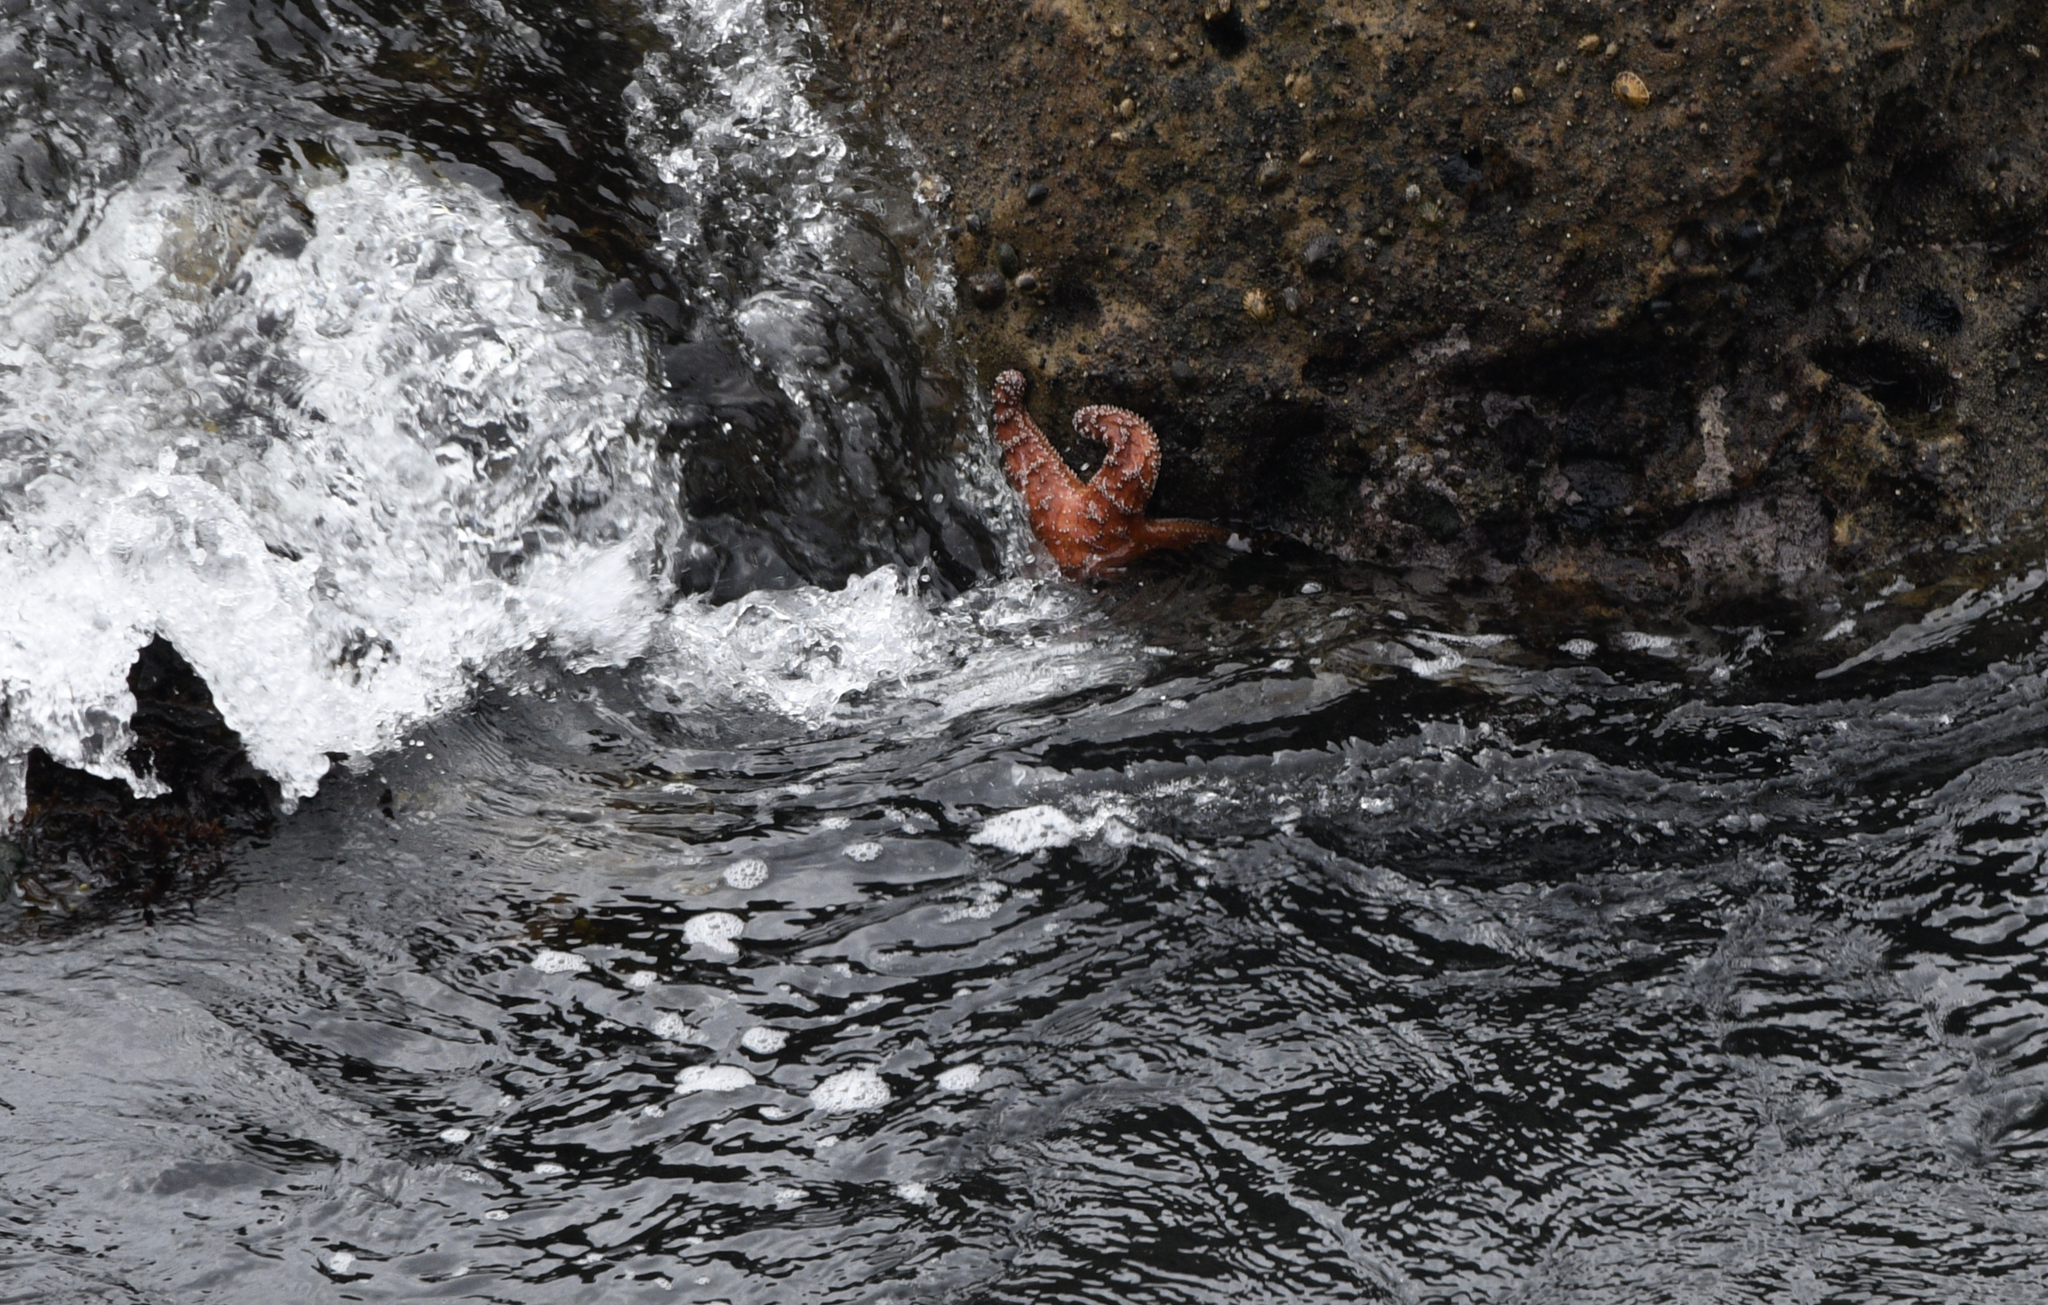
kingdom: Animalia
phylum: Echinodermata
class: Asteroidea
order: Forcipulatida
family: Asteriidae
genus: Pisaster
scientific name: Pisaster ochraceus
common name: Ochre stars
